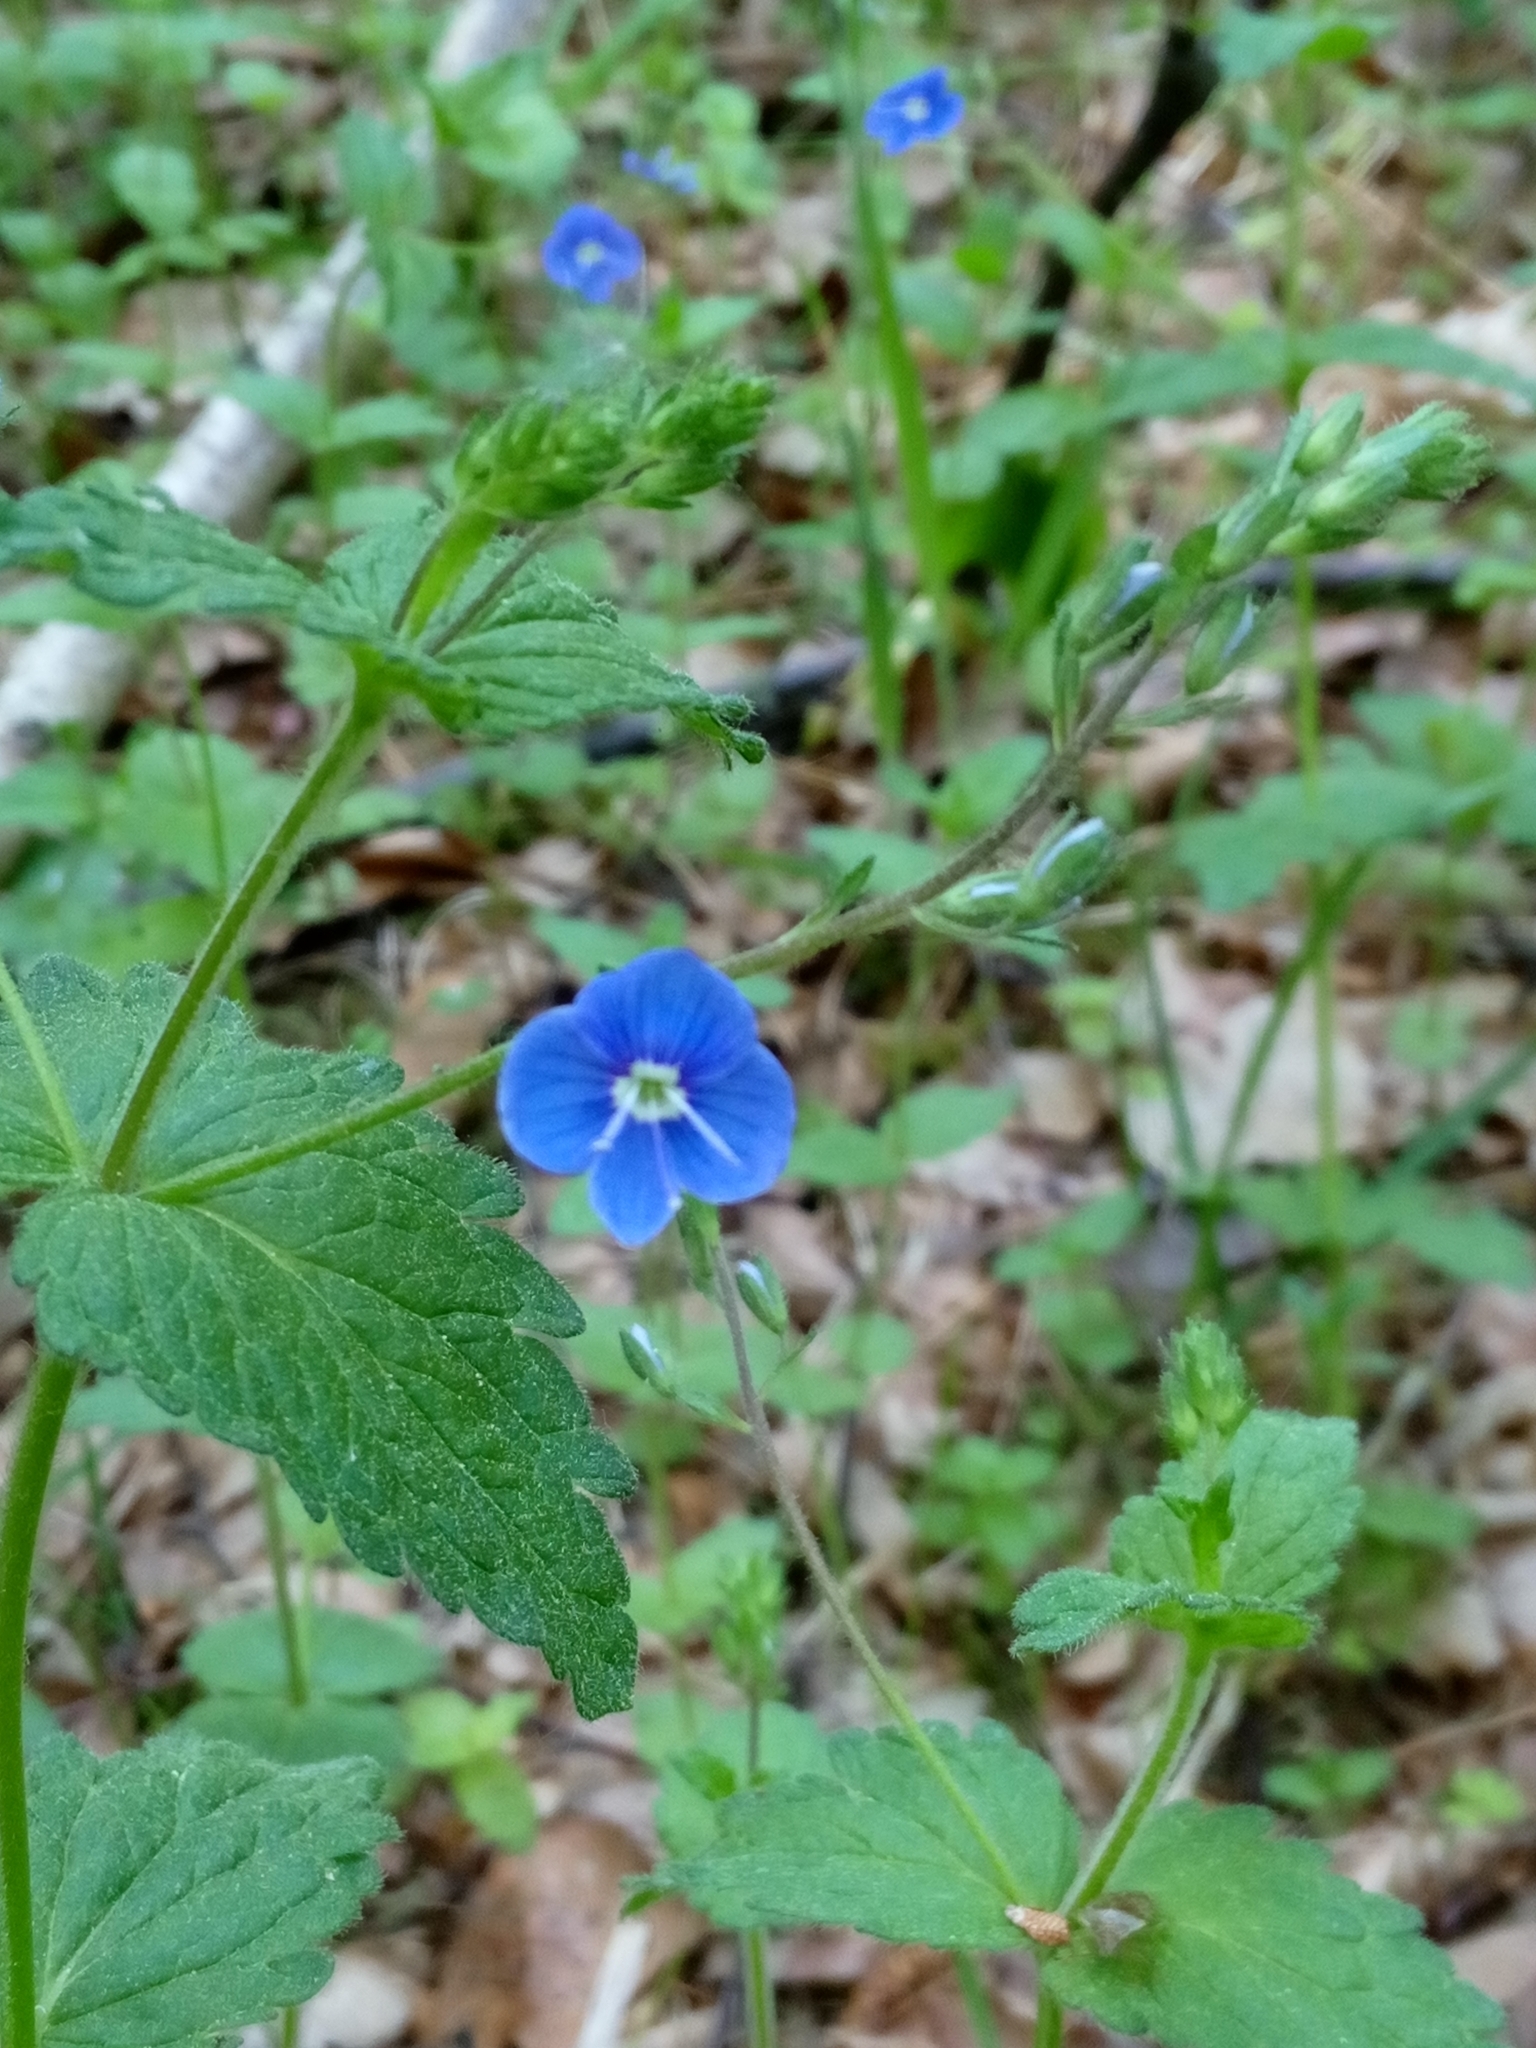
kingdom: Plantae
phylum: Tracheophyta
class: Magnoliopsida
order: Lamiales
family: Plantaginaceae
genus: Veronica
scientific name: Veronica chamaedrys
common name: Germander speedwell
